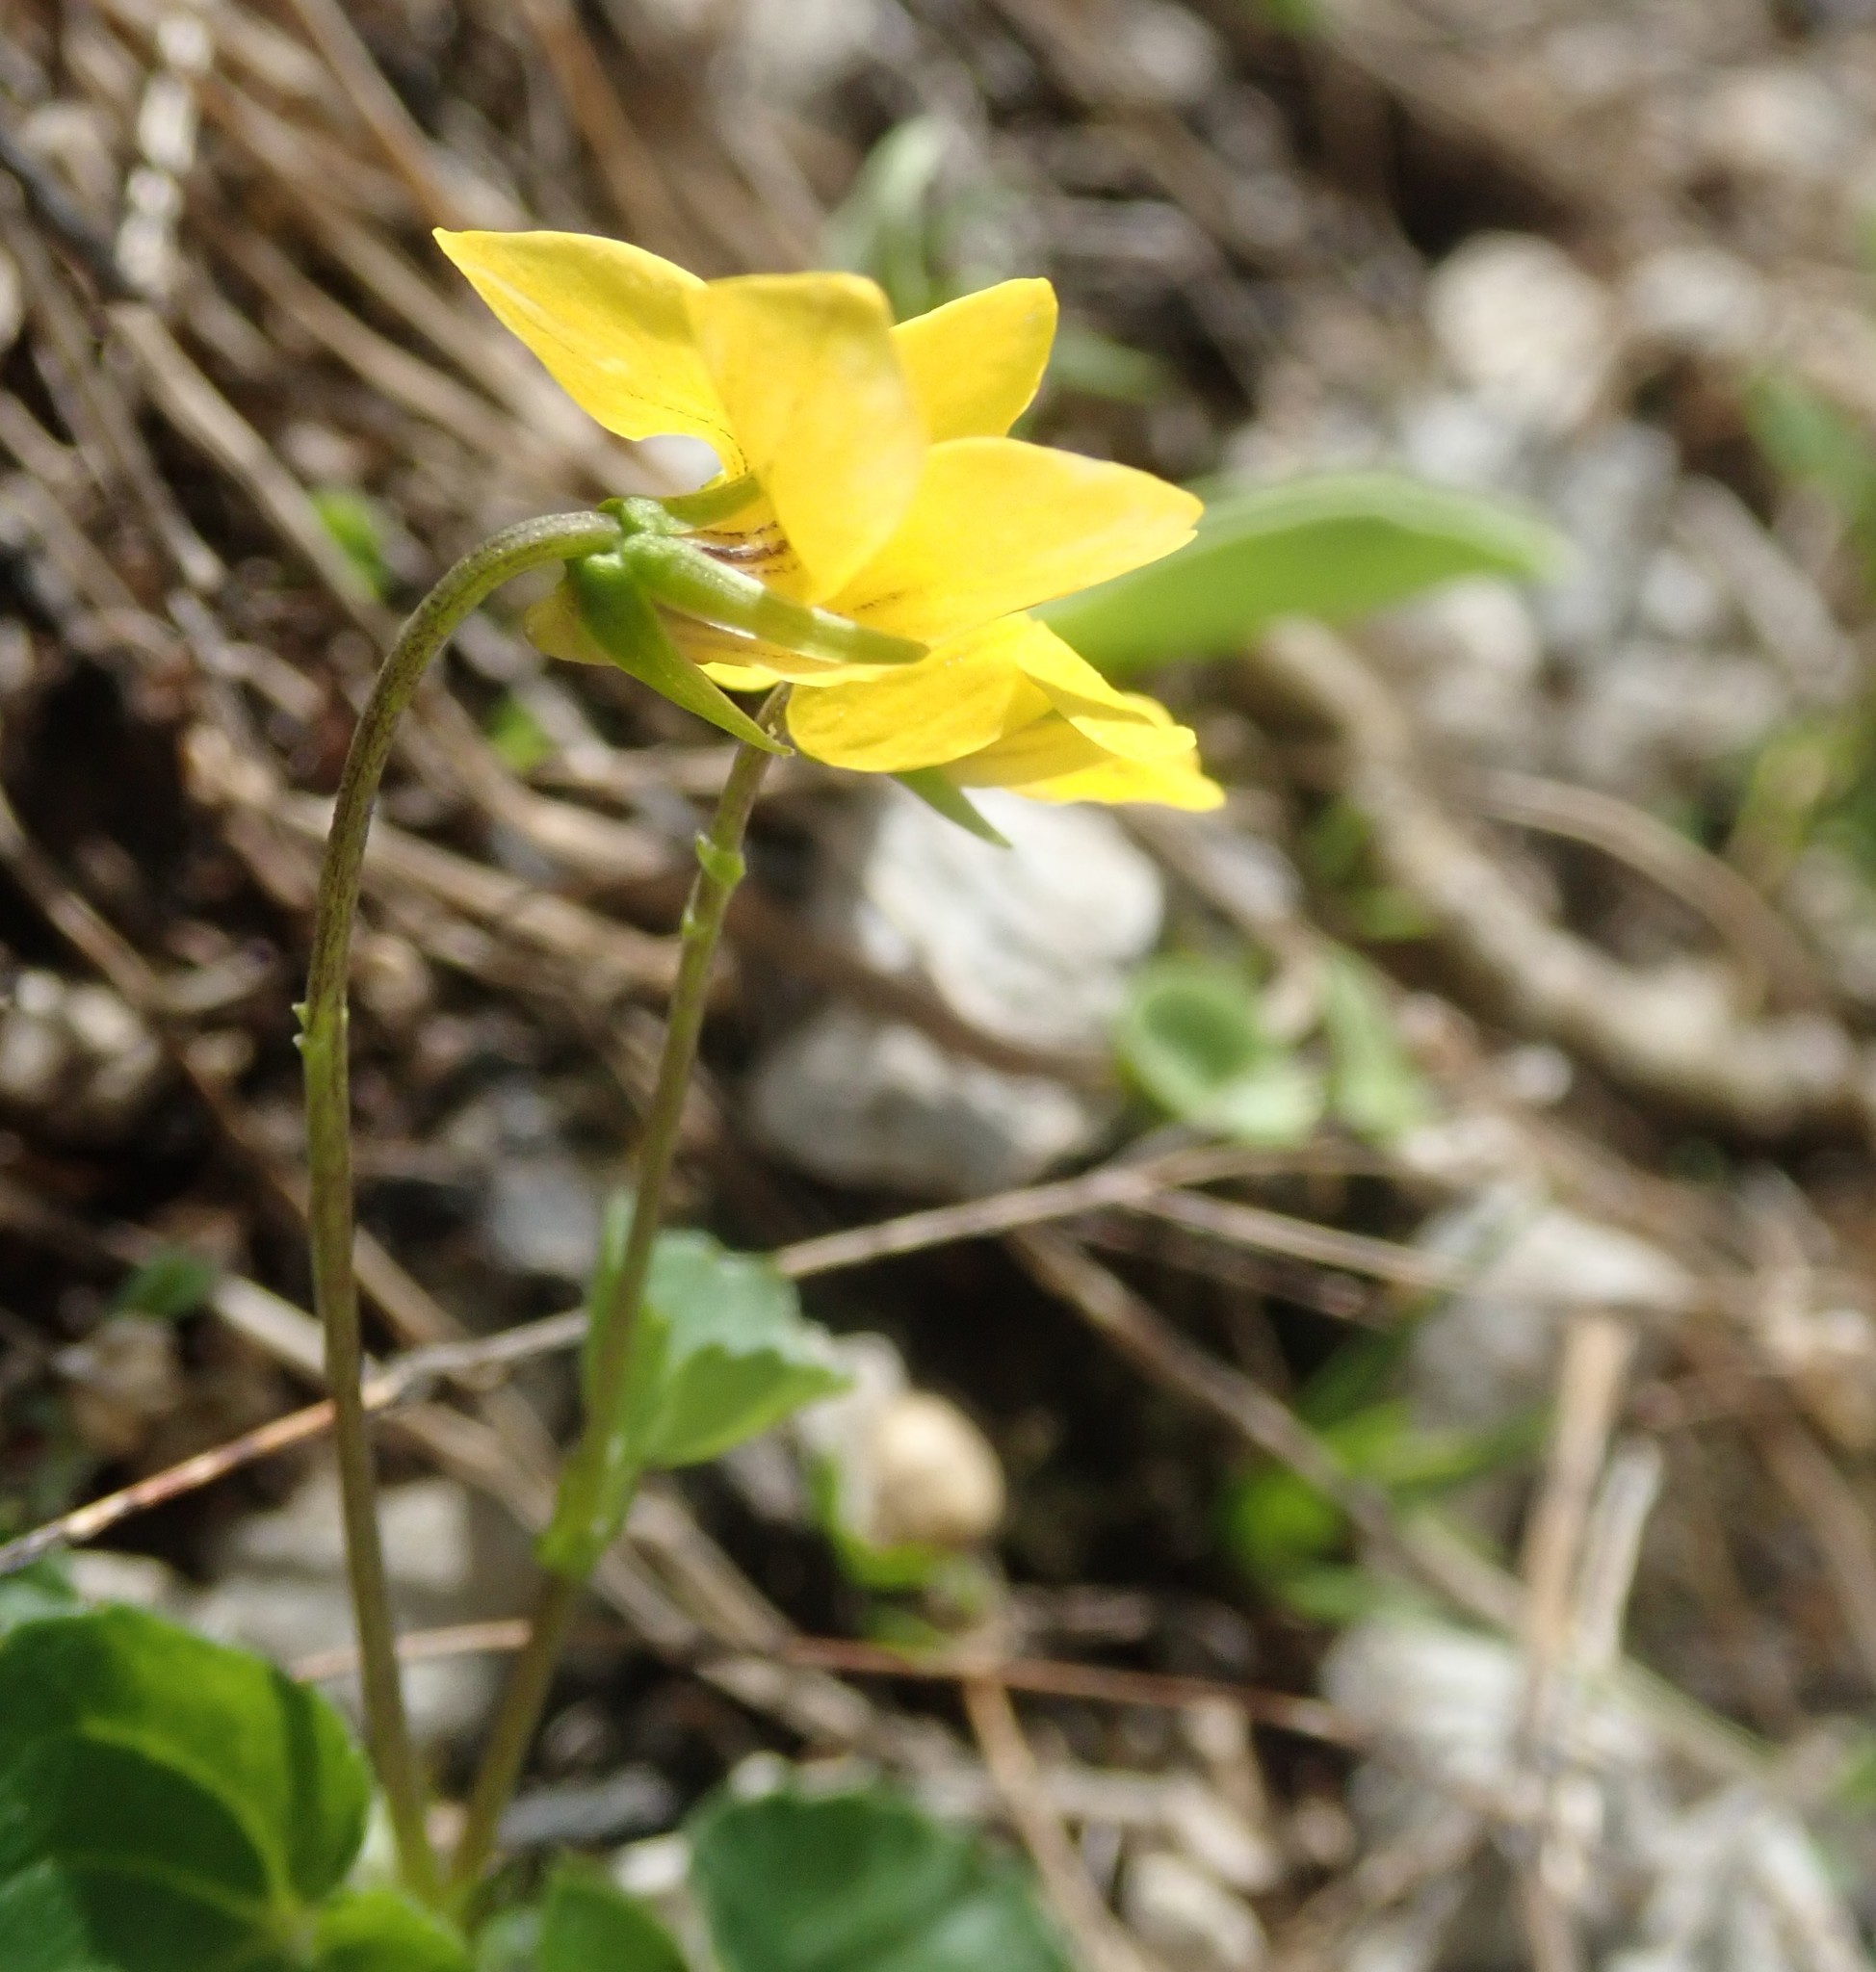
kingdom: Plantae
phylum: Tracheophyta
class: Magnoliopsida
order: Malpighiales
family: Violaceae
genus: Viola
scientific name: Viola biflora
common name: Alpine yellow violet
